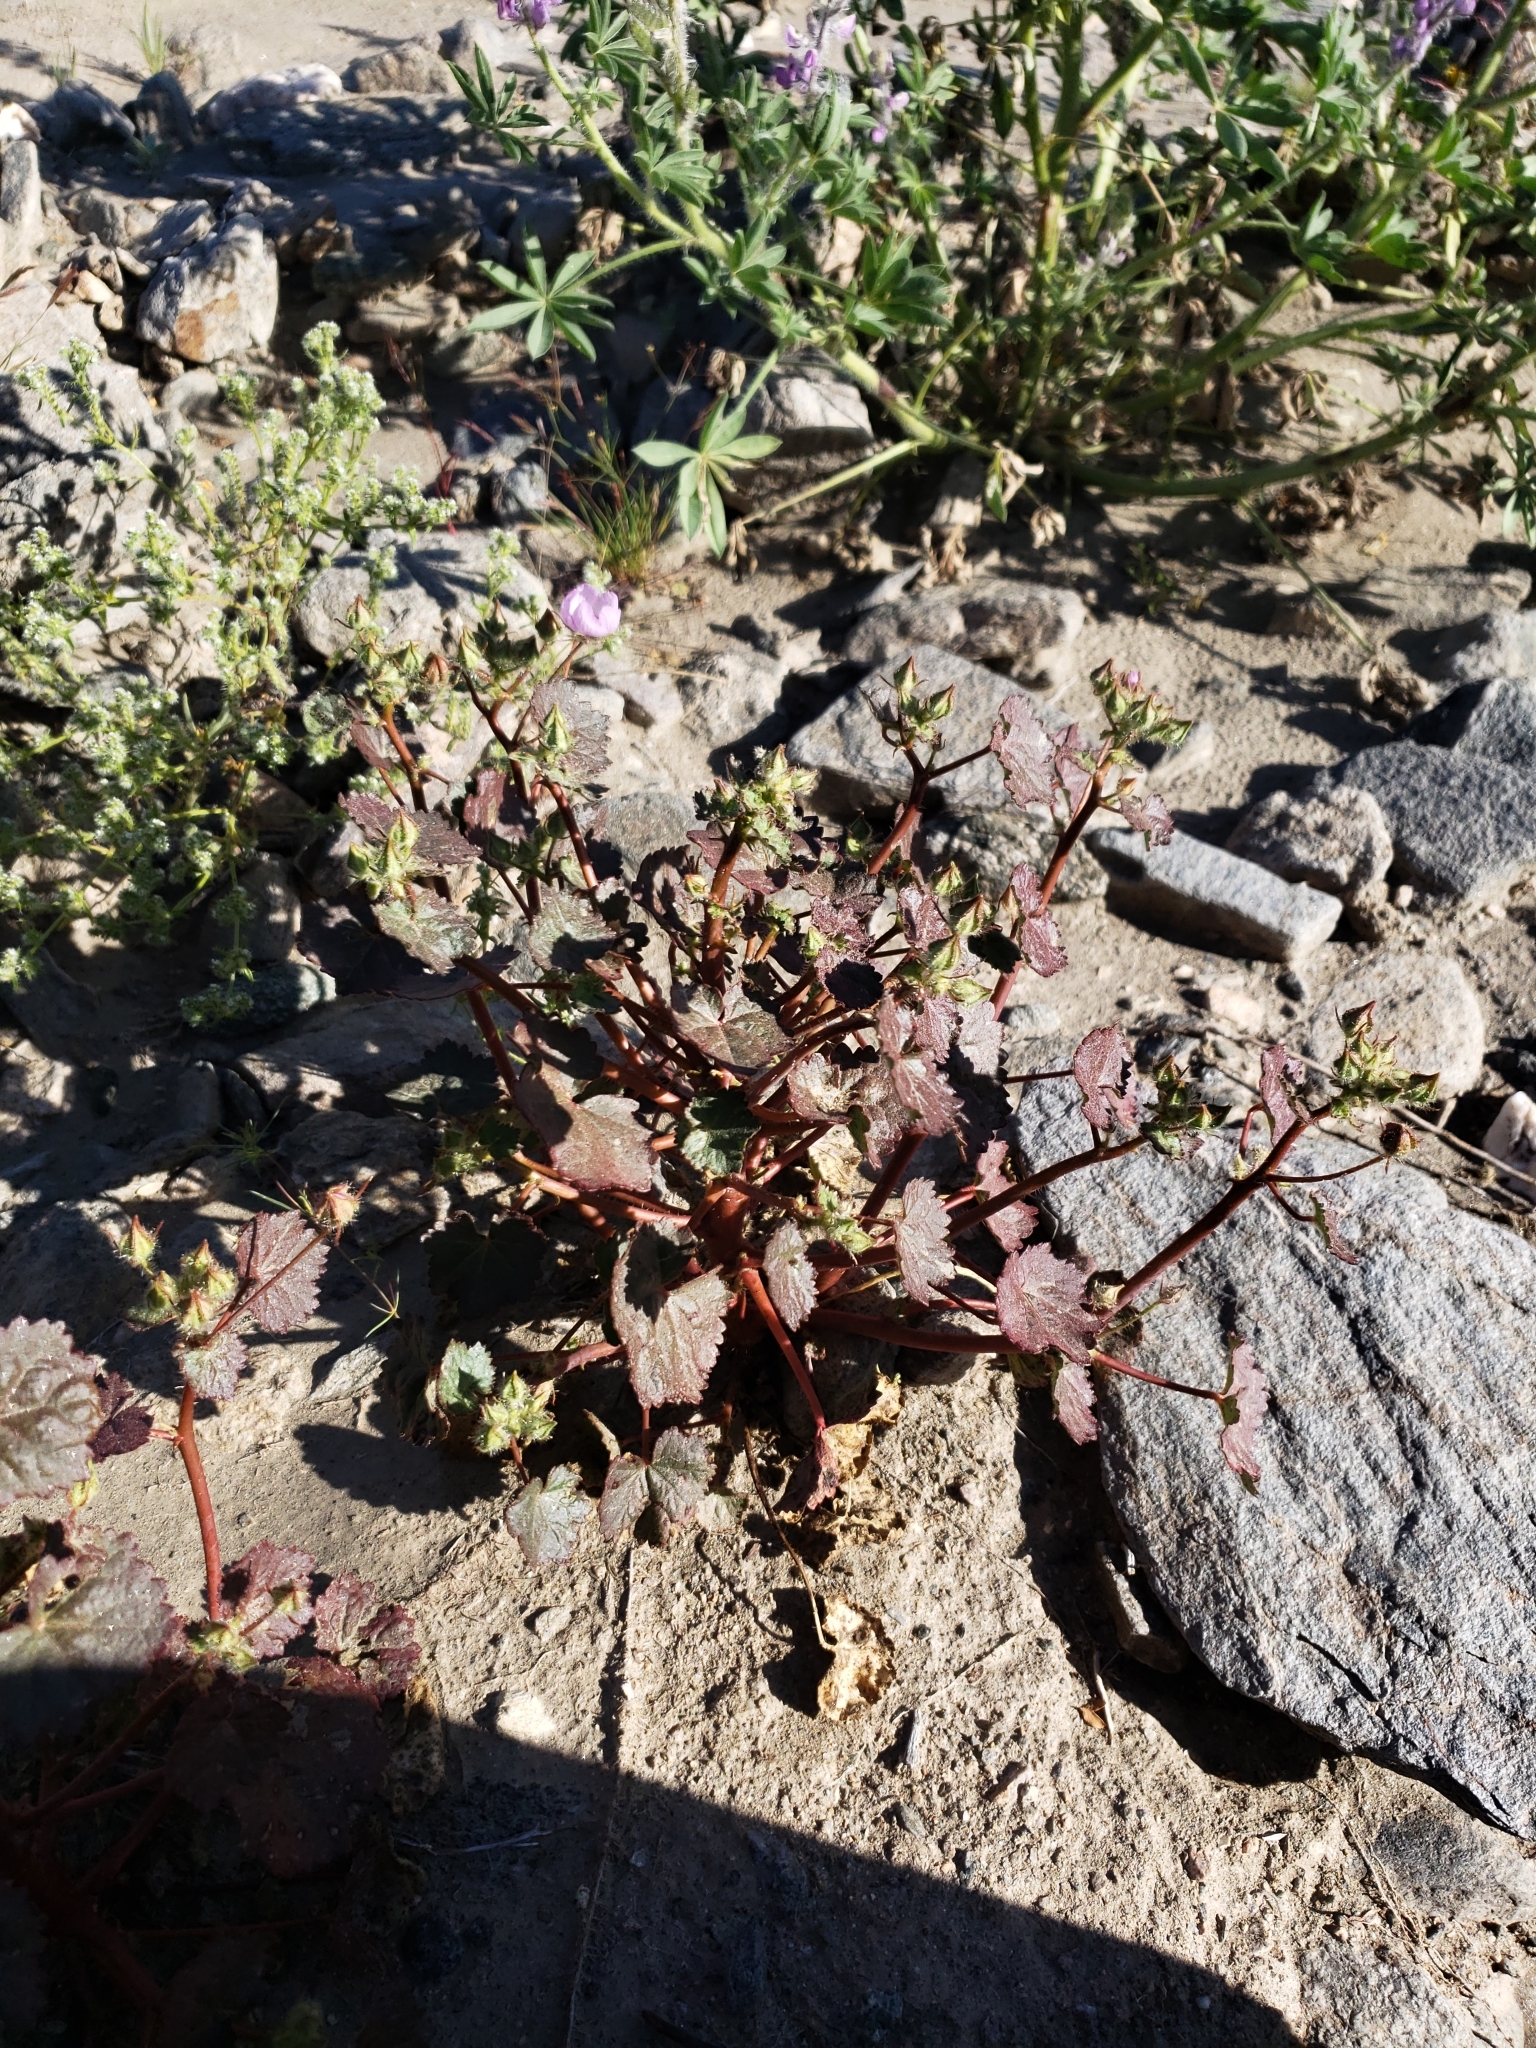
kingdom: Plantae
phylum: Tracheophyta
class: Magnoliopsida
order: Malvales
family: Malvaceae
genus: Eremalche
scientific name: Eremalche rotundifolia
